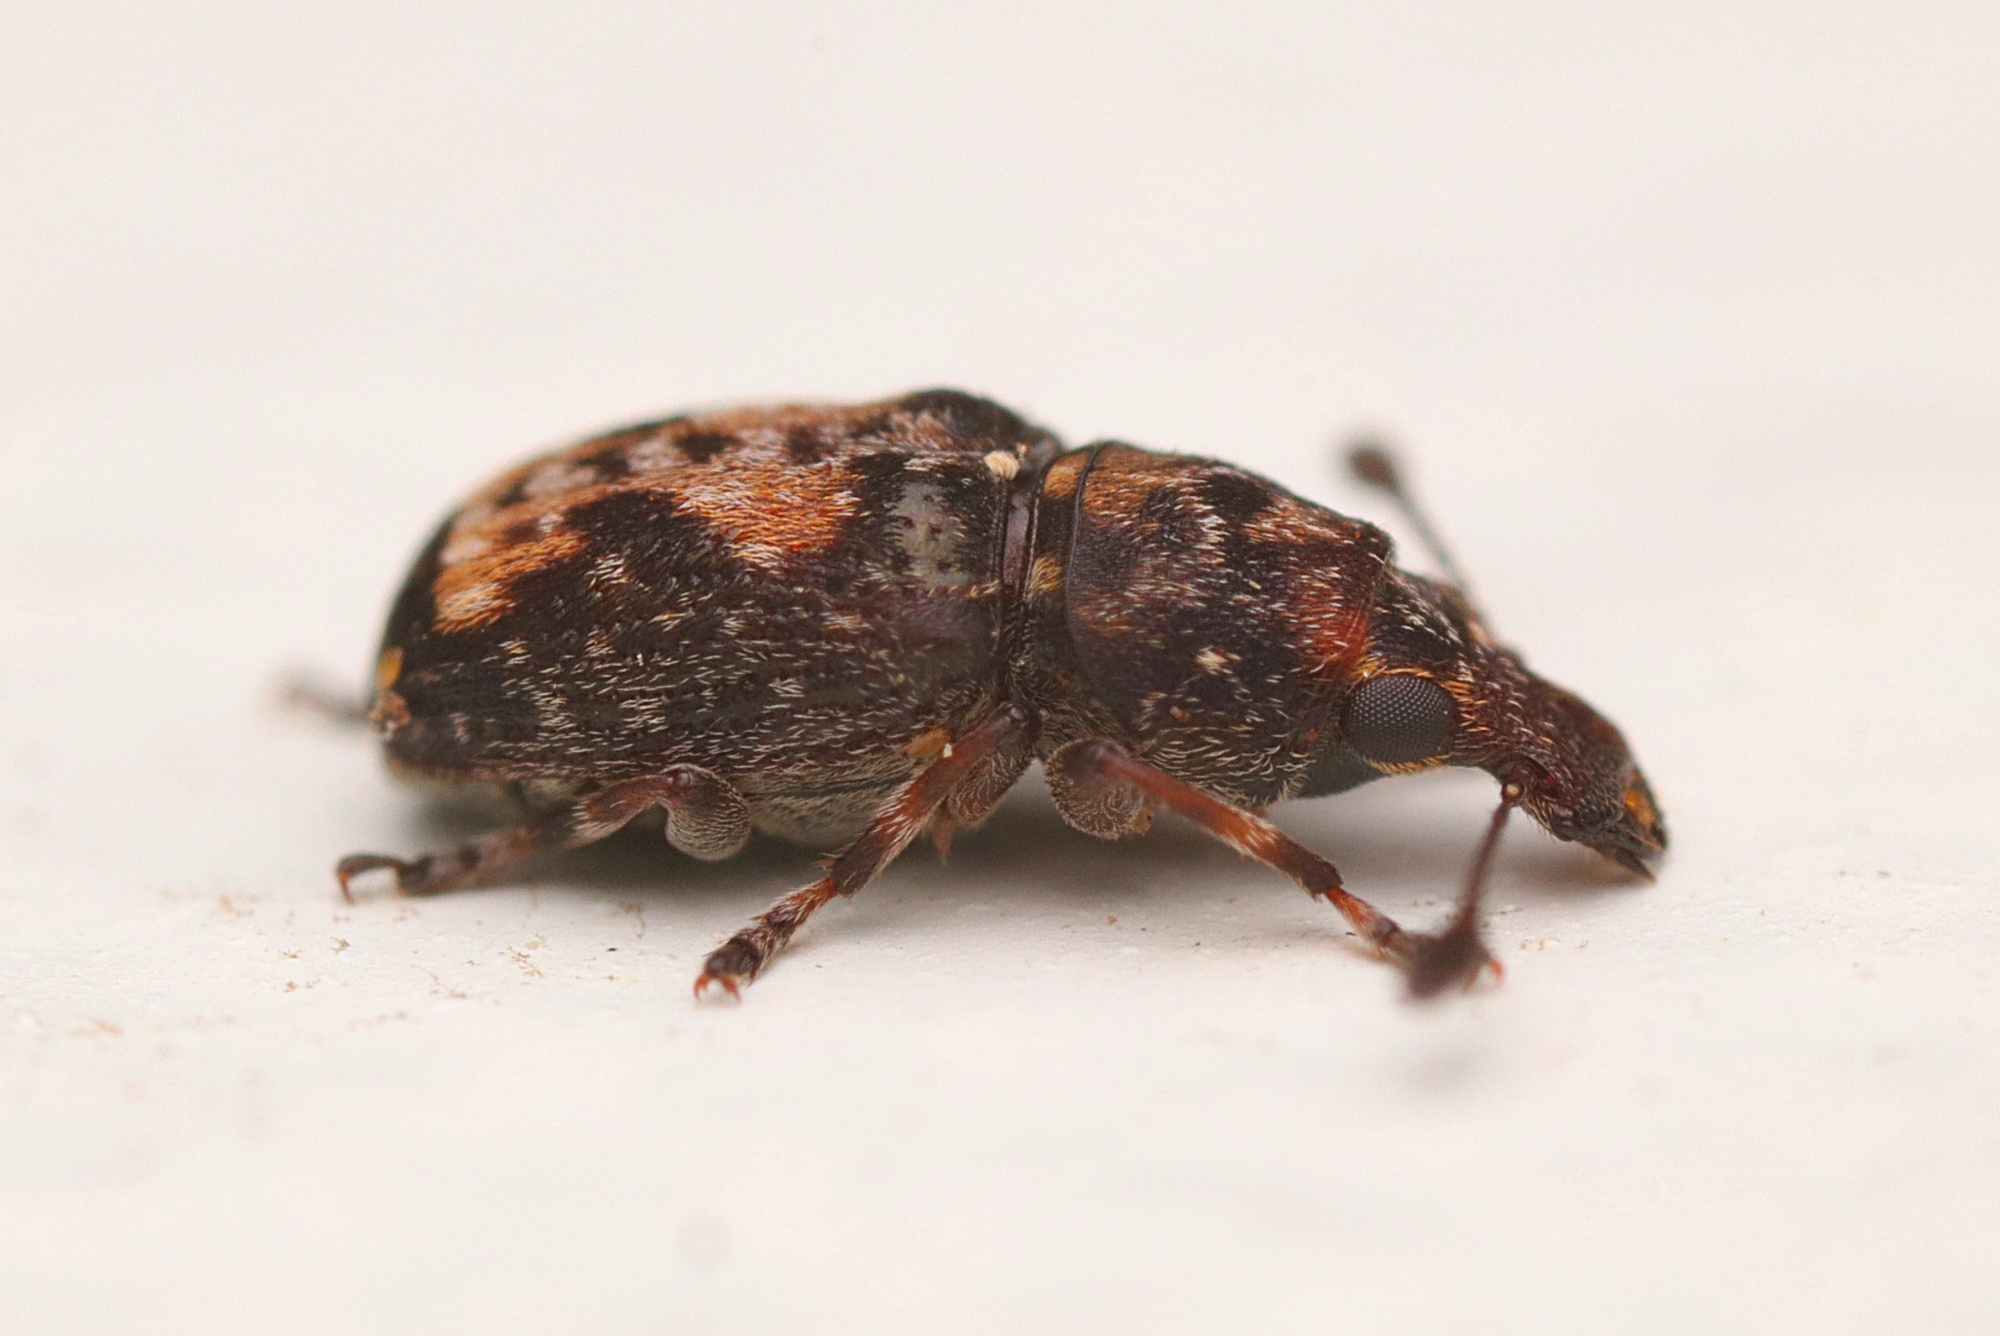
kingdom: Animalia
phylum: Arthropoda
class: Insecta
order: Coleoptera
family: Anthribidae
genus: Sharpius
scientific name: Sharpius
